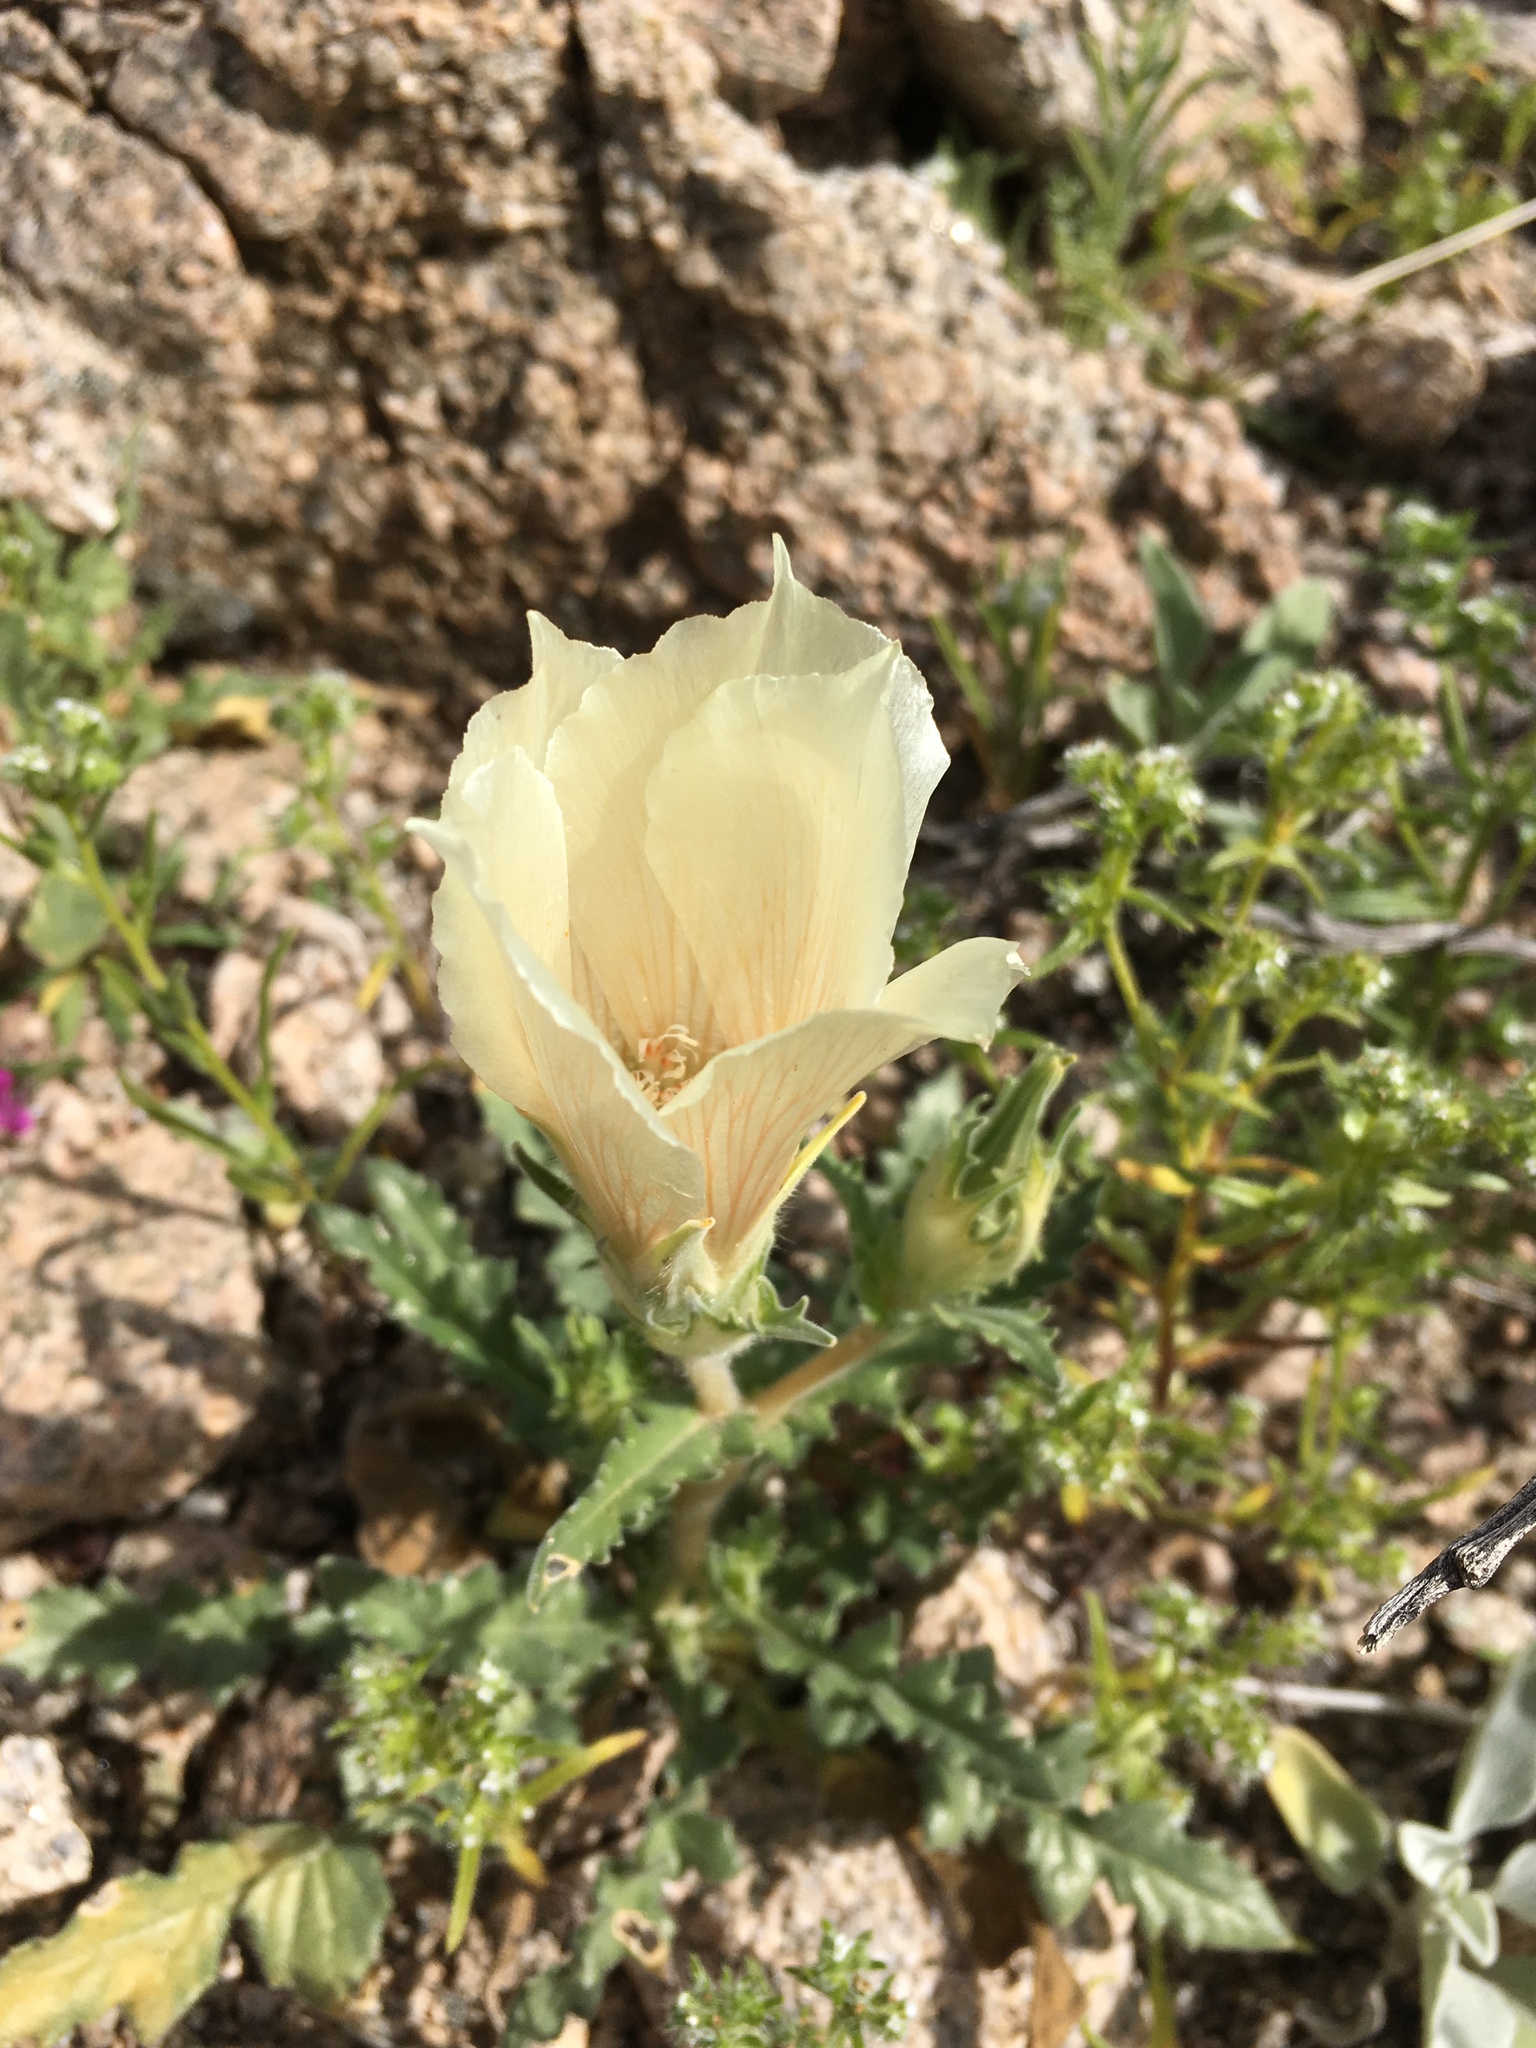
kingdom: Plantae
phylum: Tracheophyta
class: Magnoliopsida
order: Cornales
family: Loasaceae
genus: Mentzelia
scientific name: Mentzelia involucrata
